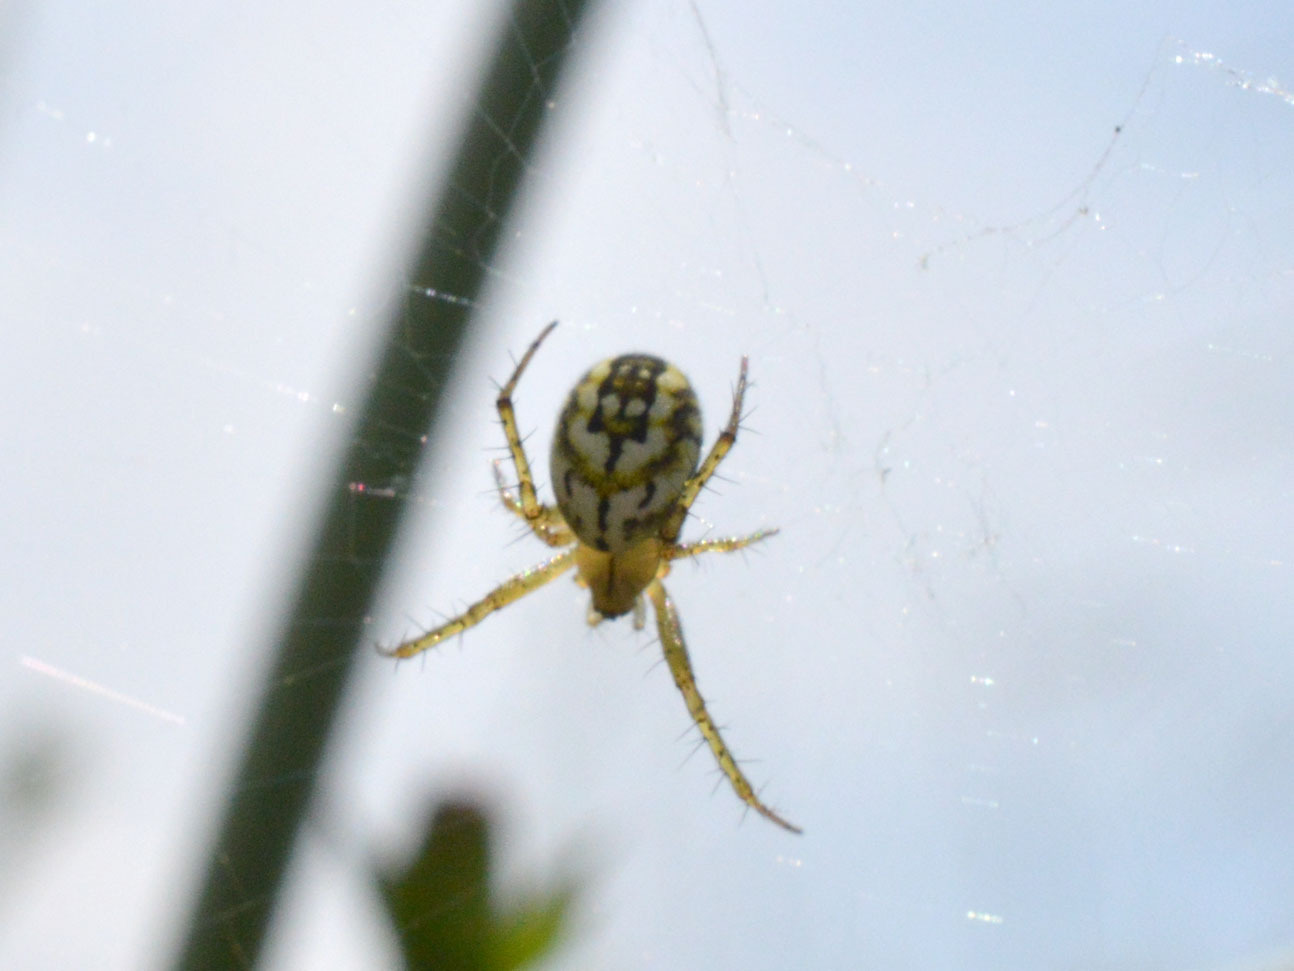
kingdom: Animalia
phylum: Arthropoda
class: Arachnida
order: Araneae
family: Araneidae
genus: Mangora
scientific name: Mangora acalypha
